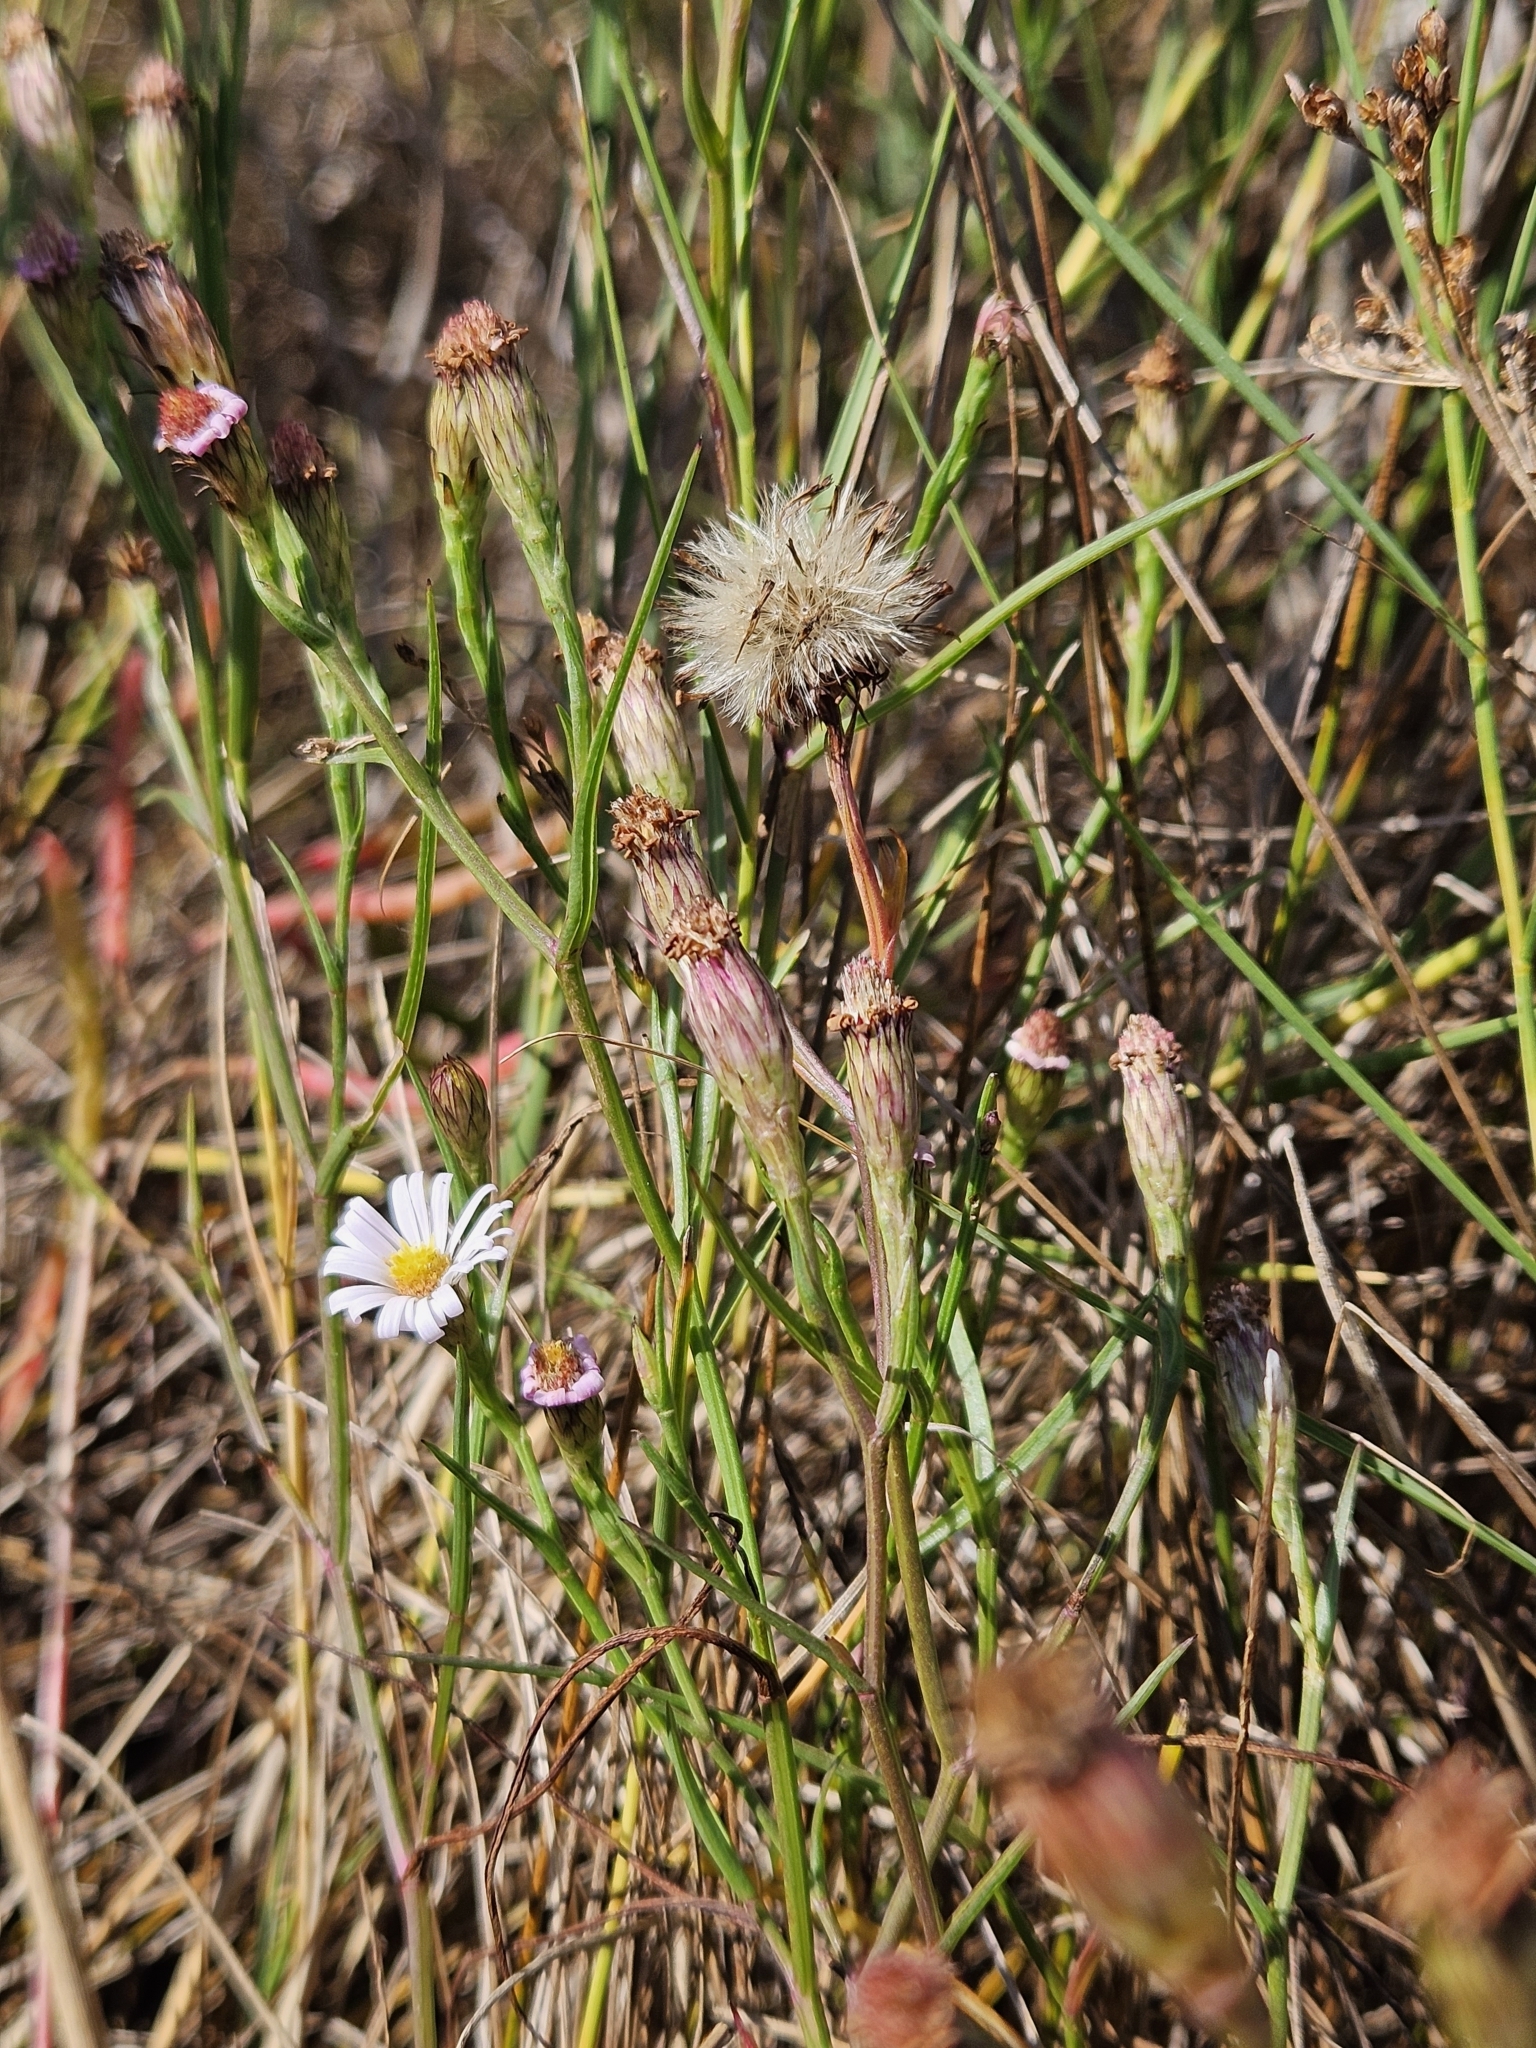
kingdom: Plantae
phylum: Tracheophyta
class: Magnoliopsida
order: Asterales
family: Asteraceae
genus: Symphyotrichum
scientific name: Symphyotrichum tenuifolium
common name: Perennial salt-marsh aster
